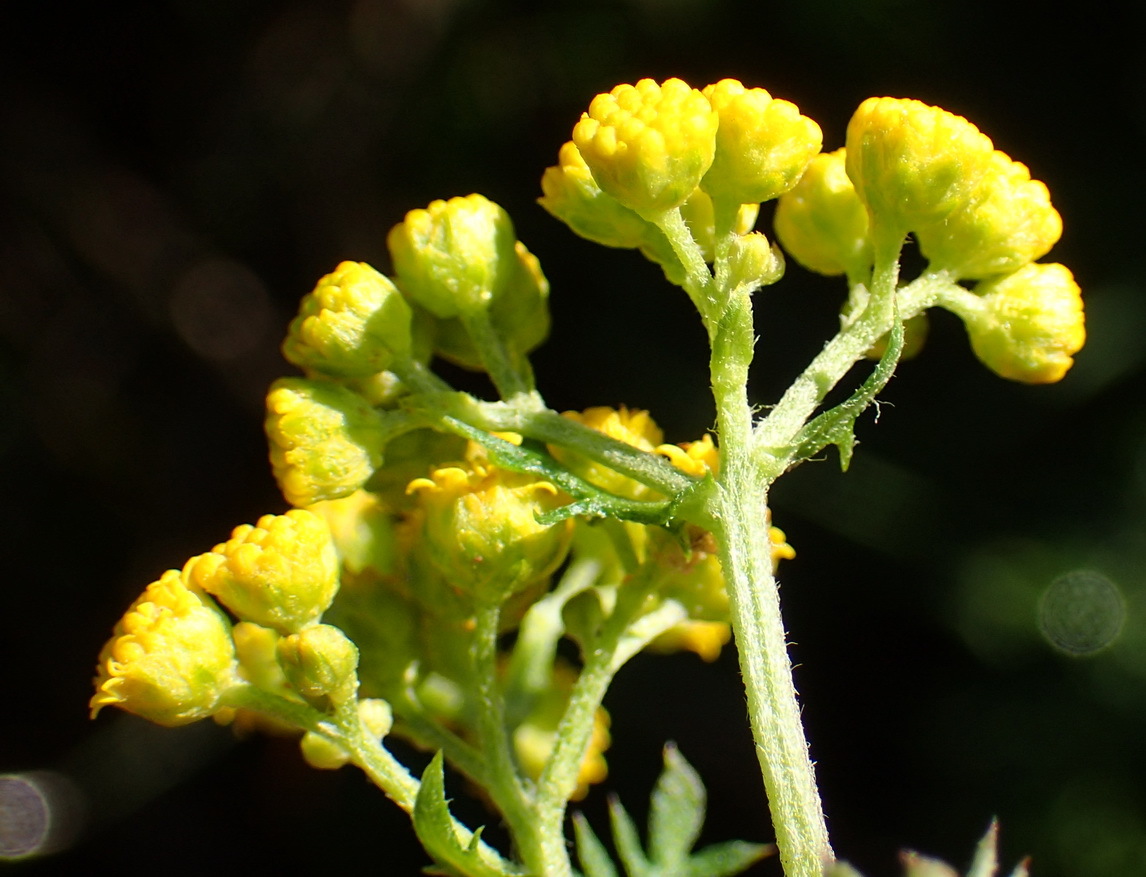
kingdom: Plantae
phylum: Tracheophyta
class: Magnoliopsida
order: Asterales
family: Asteraceae
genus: Hippia
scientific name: Hippia frutescens
